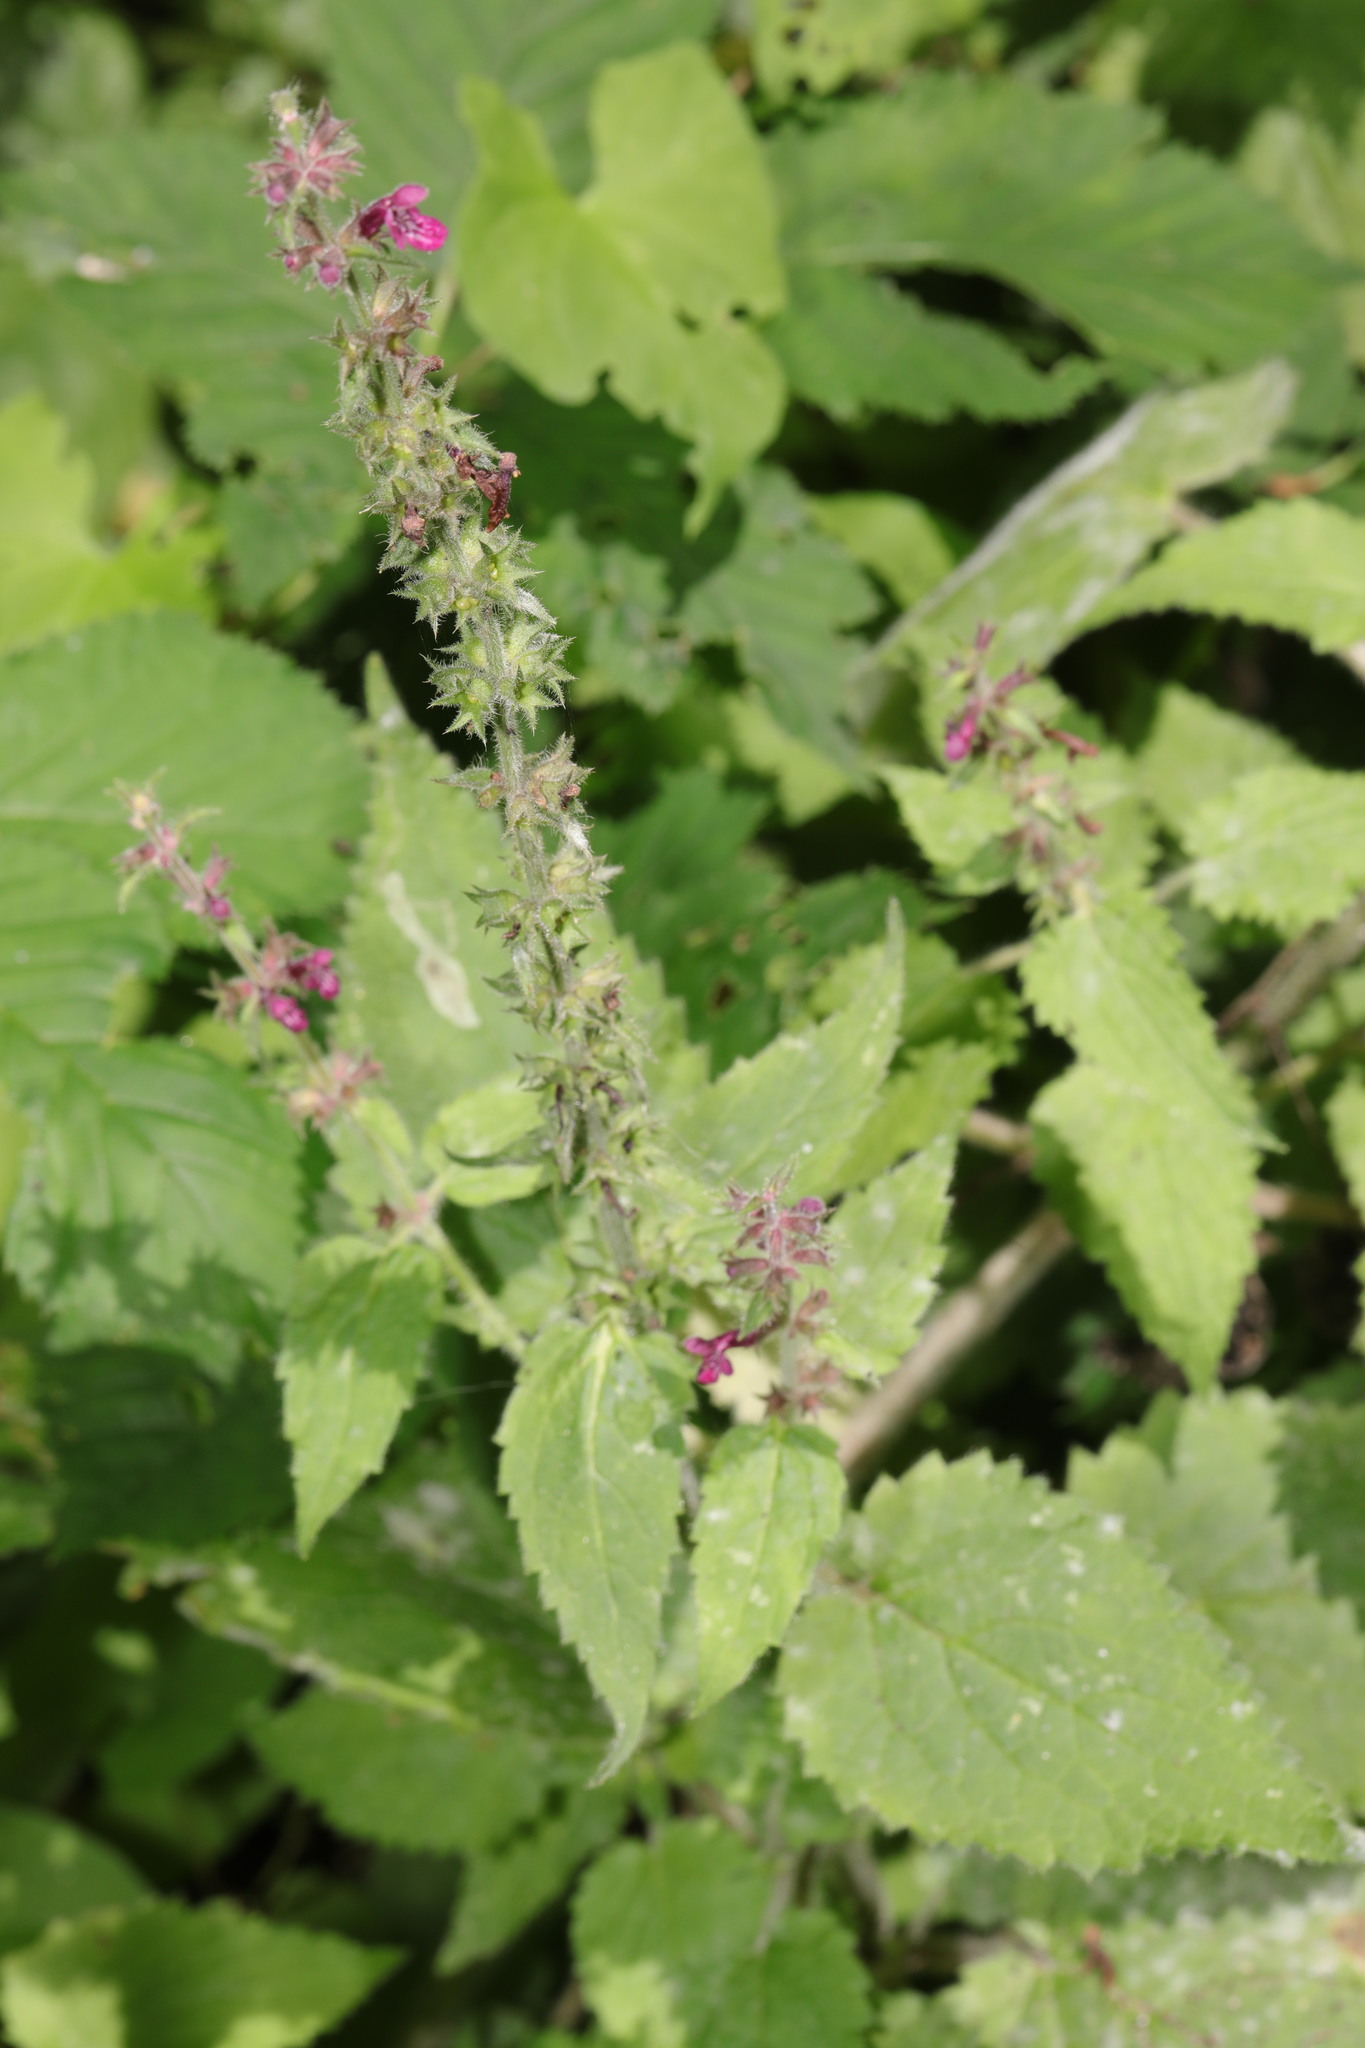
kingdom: Plantae
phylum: Tracheophyta
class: Magnoliopsida
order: Lamiales
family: Lamiaceae
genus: Stachys
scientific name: Stachys sylvatica
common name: Hedge woundwort
